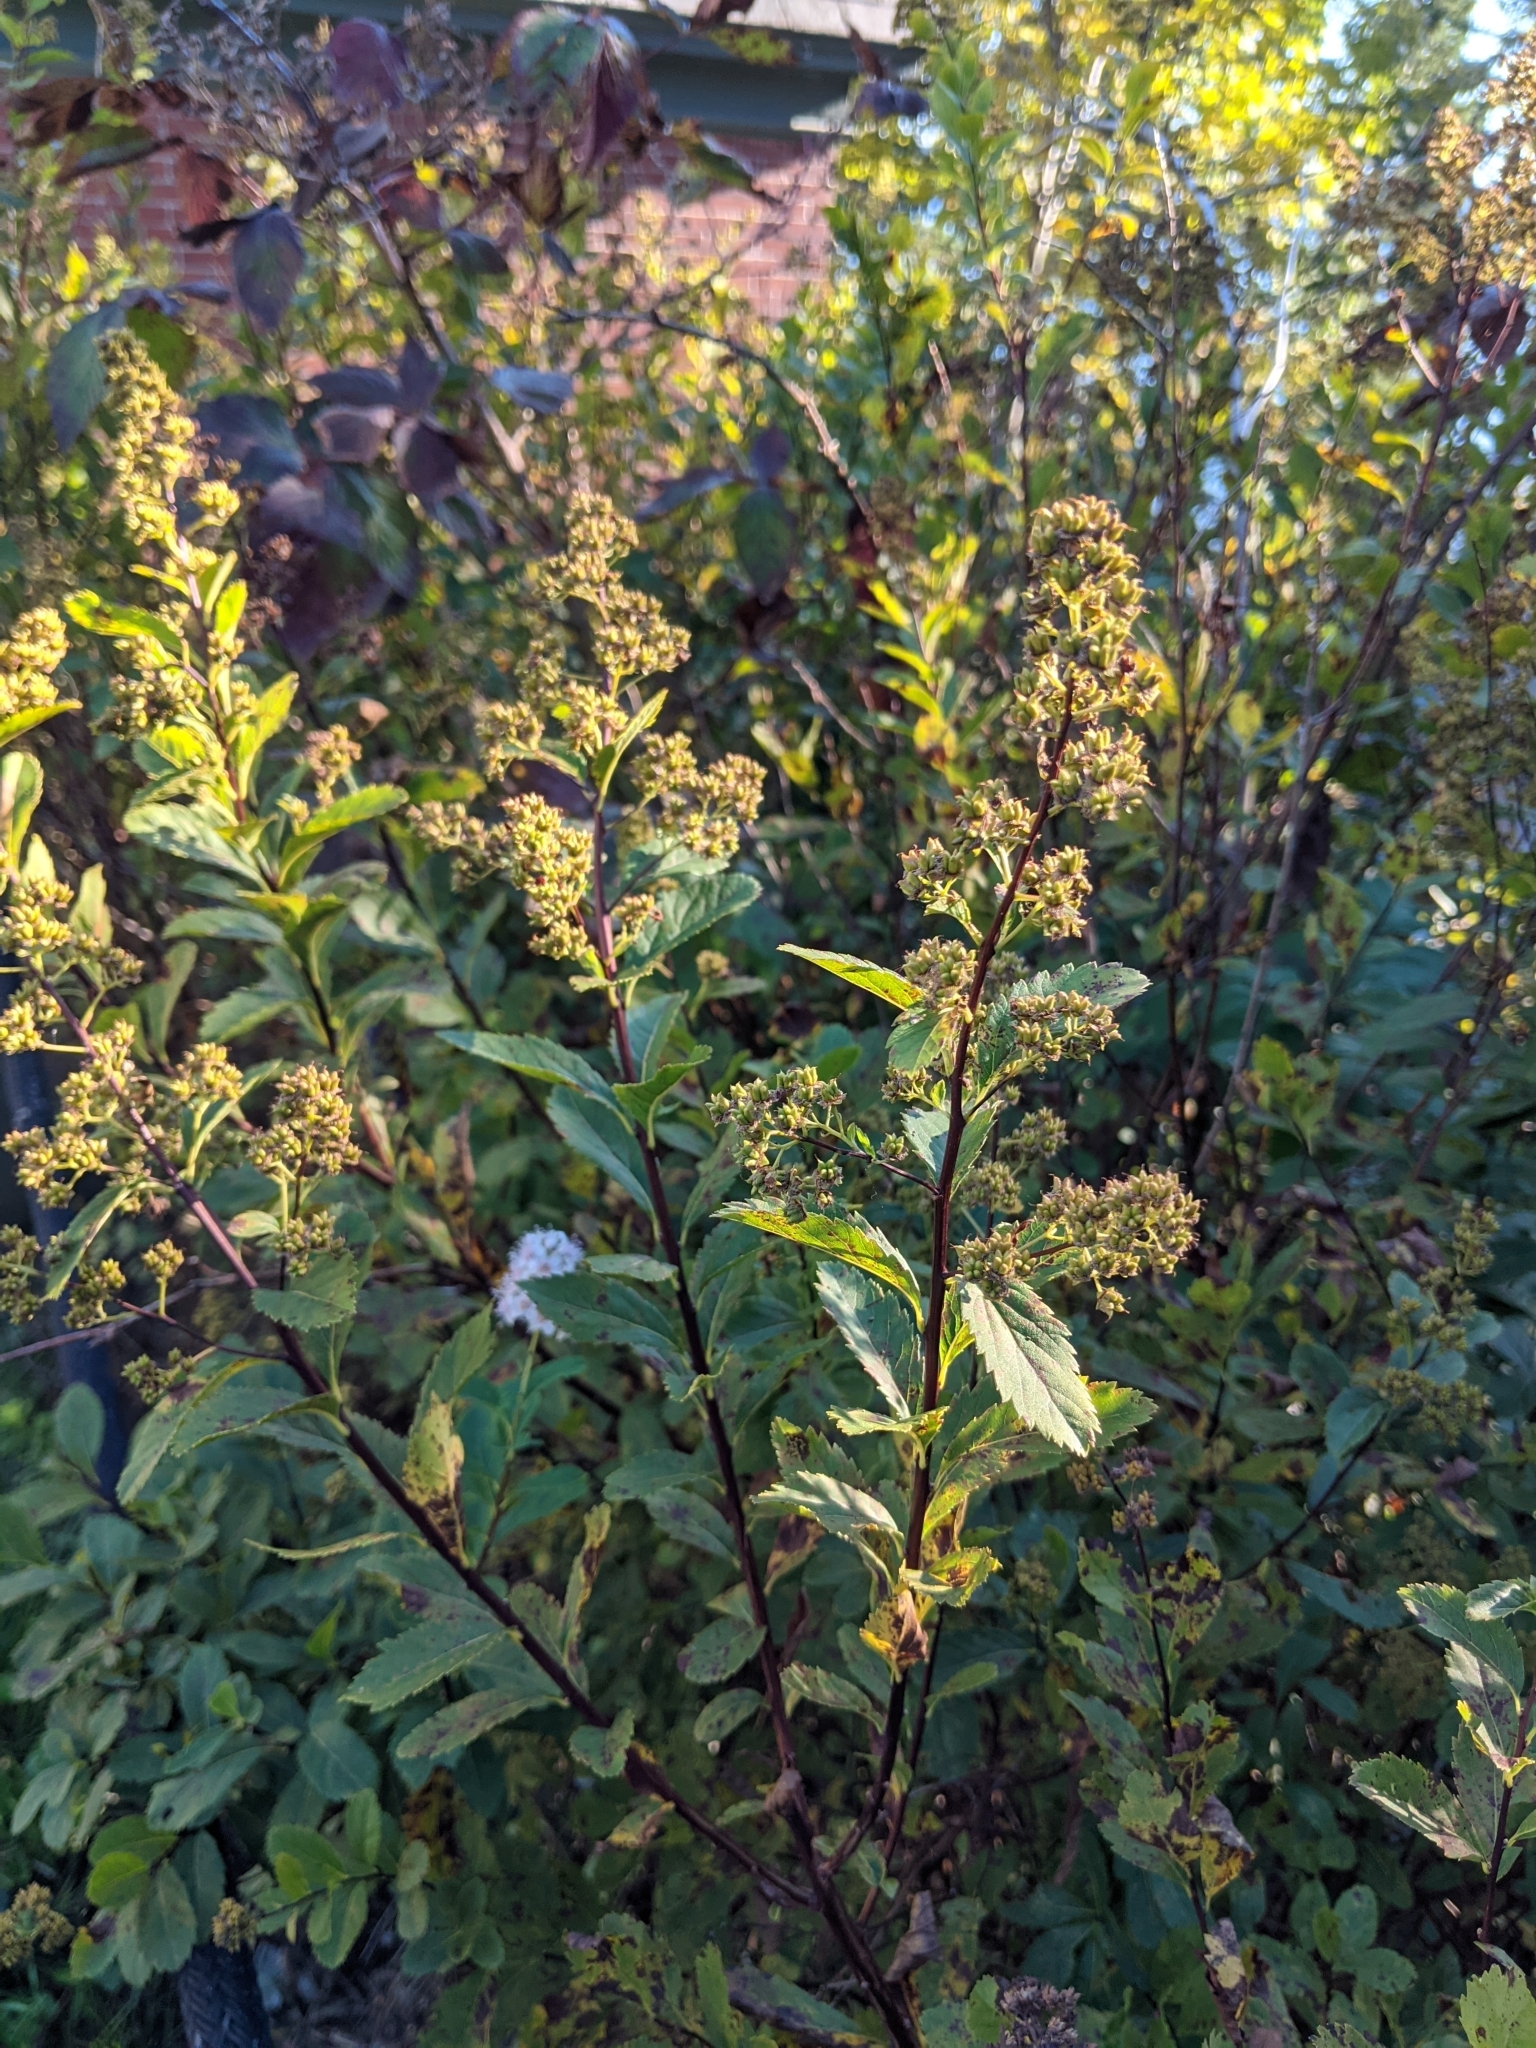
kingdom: Plantae
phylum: Tracheophyta
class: Magnoliopsida
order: Rosales
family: Rosaceae
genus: Spiraea
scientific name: Spiraea alba
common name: Pale bridewort
